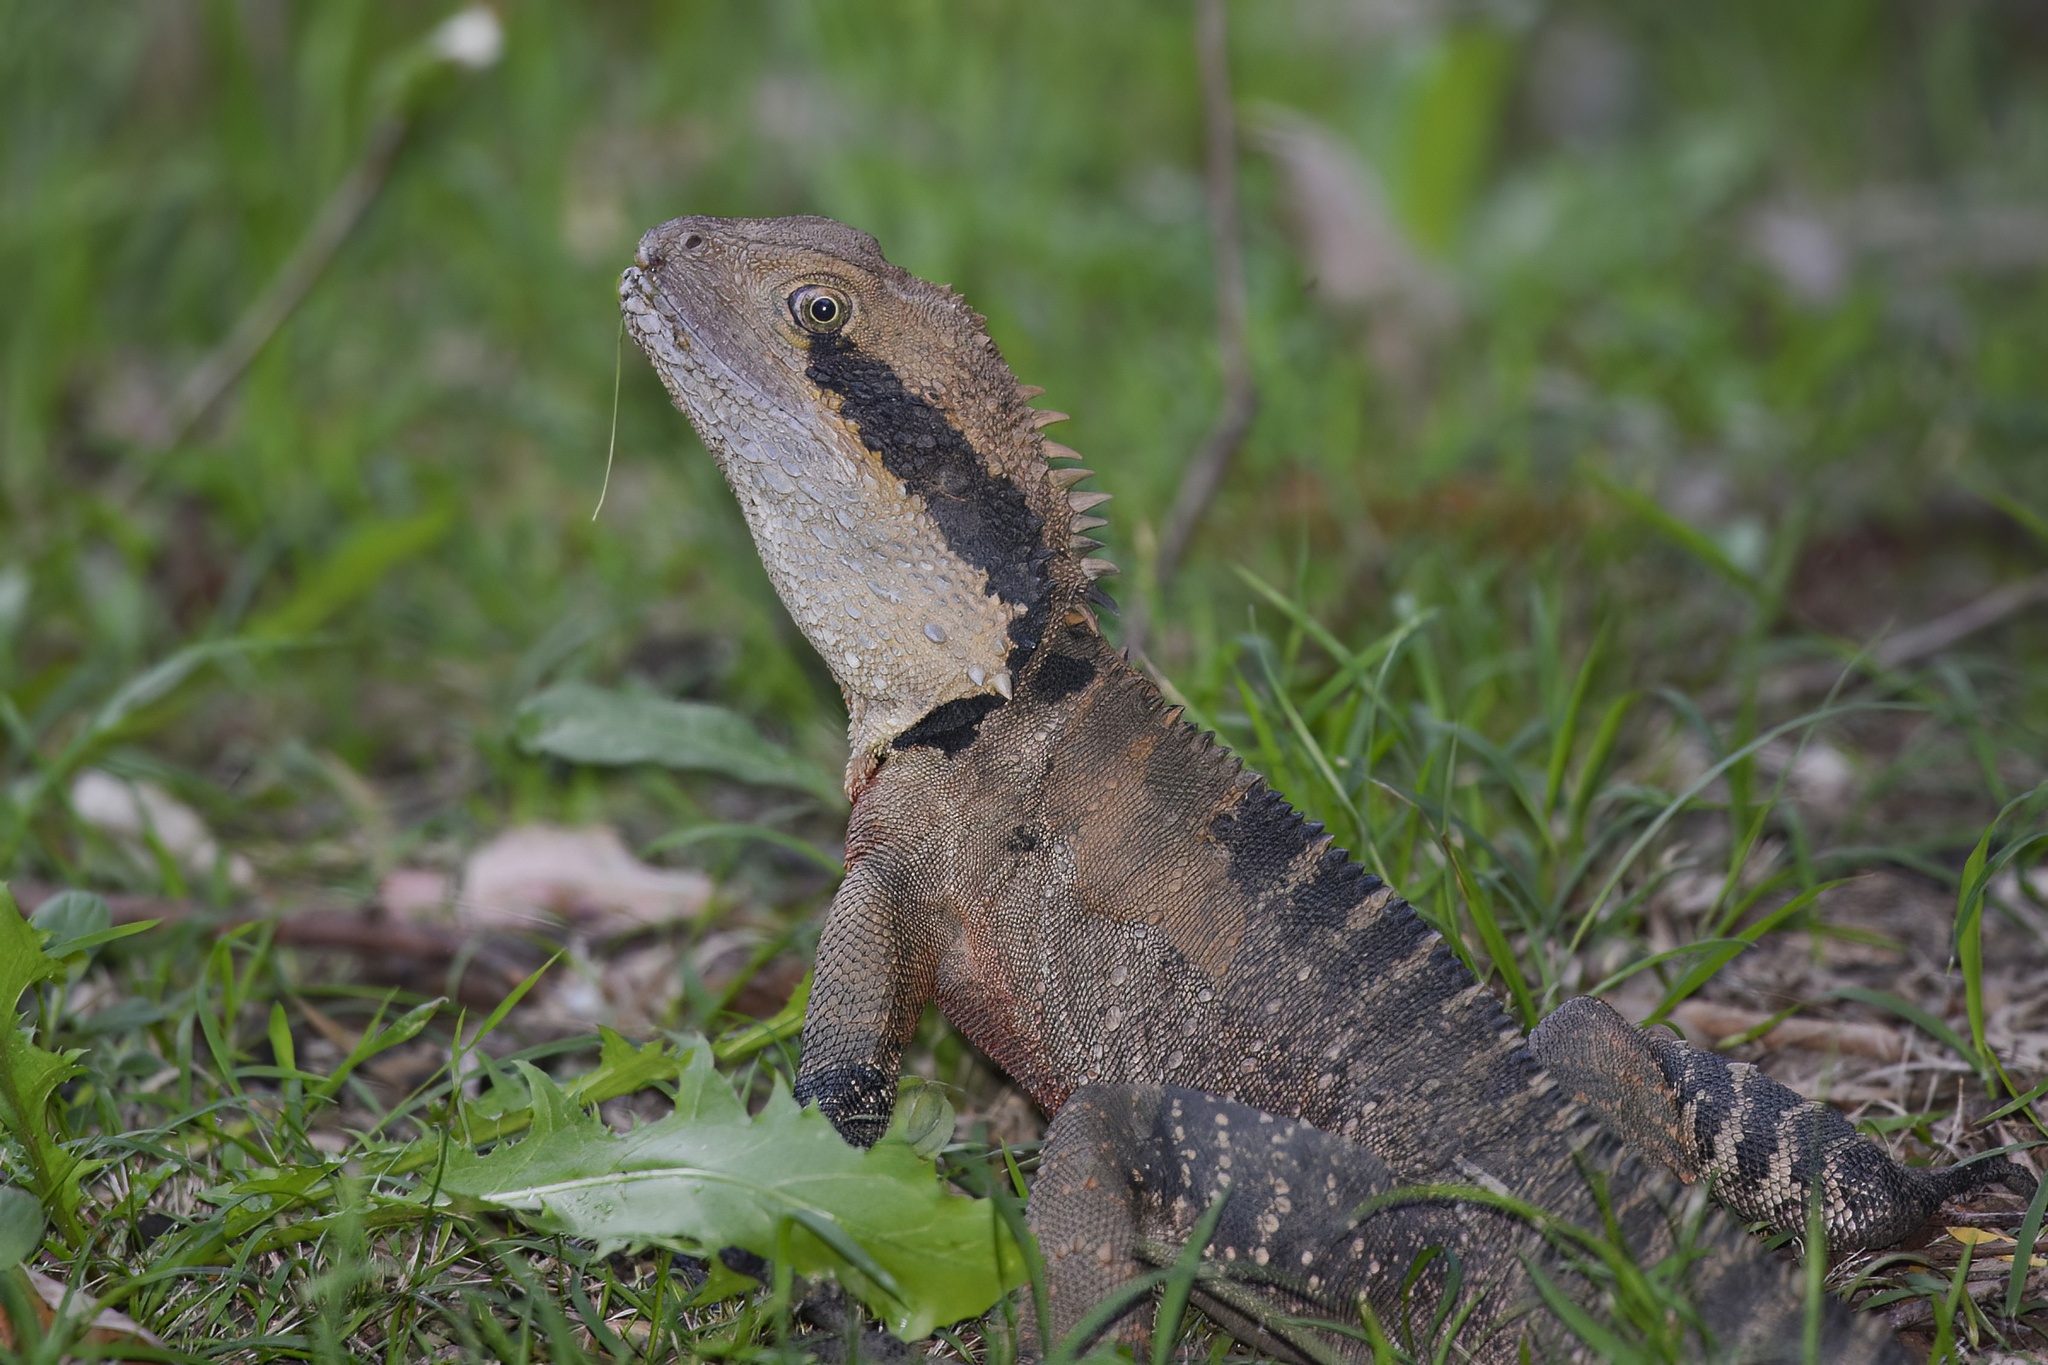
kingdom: Animalia
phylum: Chordata
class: Squamata
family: Agamidae
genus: Intellagama
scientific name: Intellagama lesueurii
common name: Eastern water dragon
